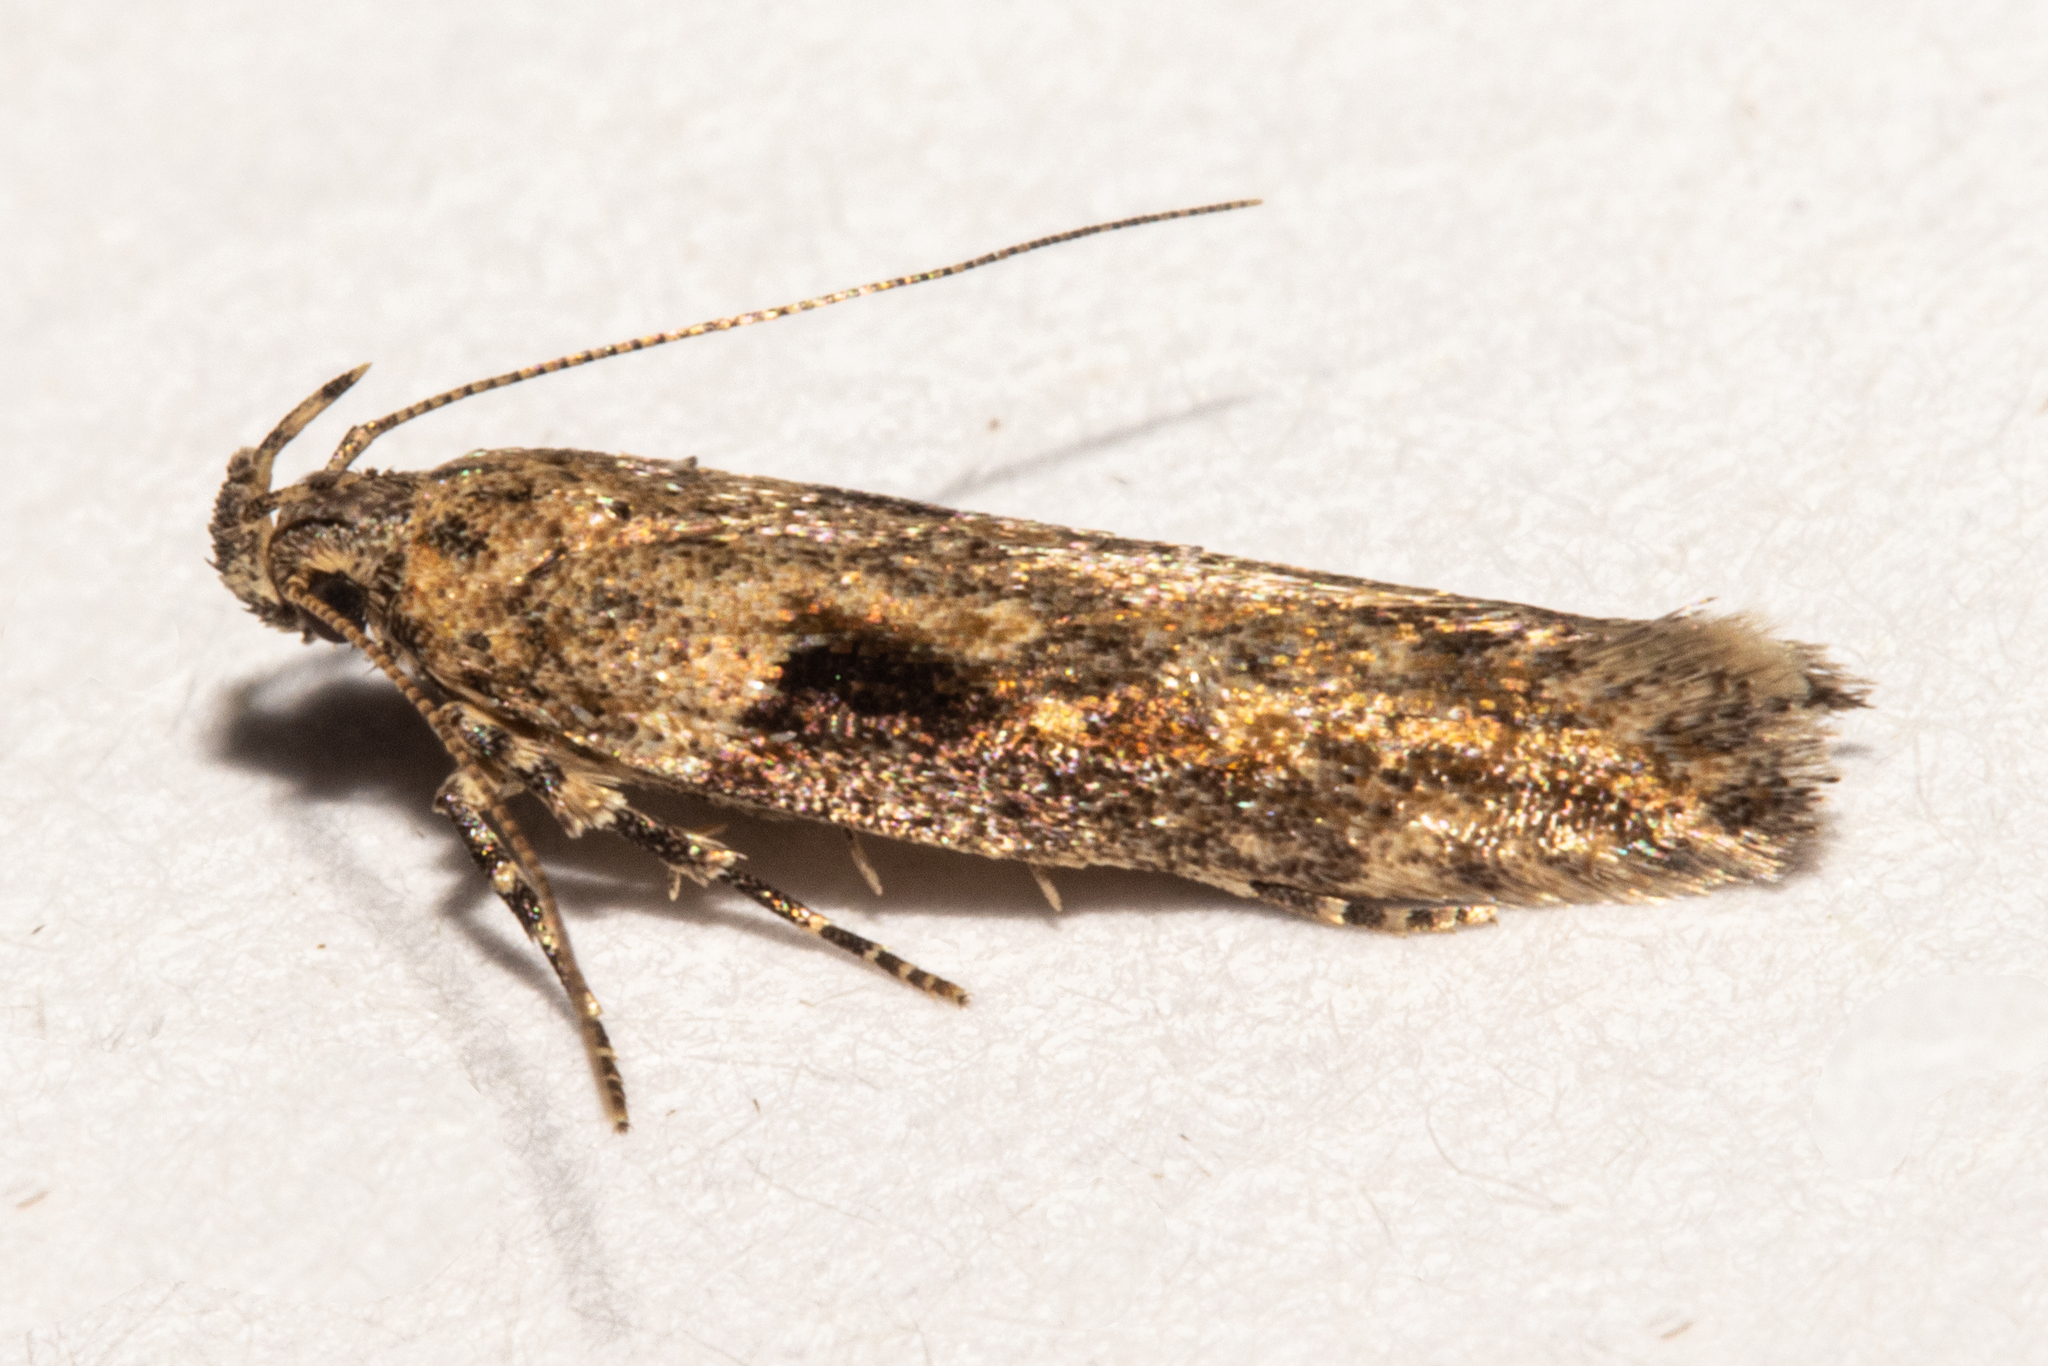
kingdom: Animalia
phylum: Arthropoda
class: Insecta
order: Lepidoptera
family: Gelechiidae
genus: Symmetrischema
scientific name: Symmetrischema tangolias
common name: Moth
